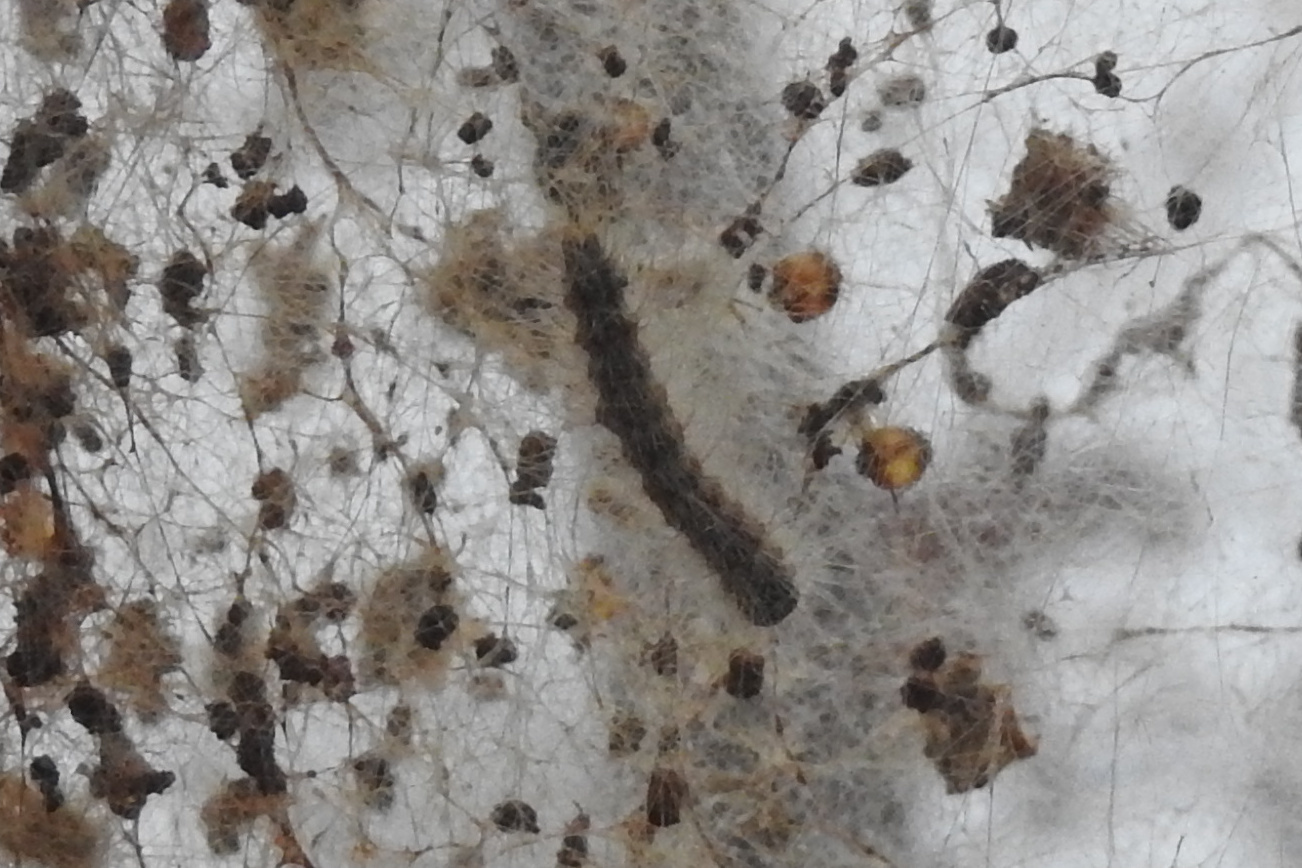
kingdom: Animalia
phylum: Arthropoda
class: Insecta
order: Lepidoptera
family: Erebidae
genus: Hyphantria
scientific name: Hyphantria cunea
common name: American white moth
